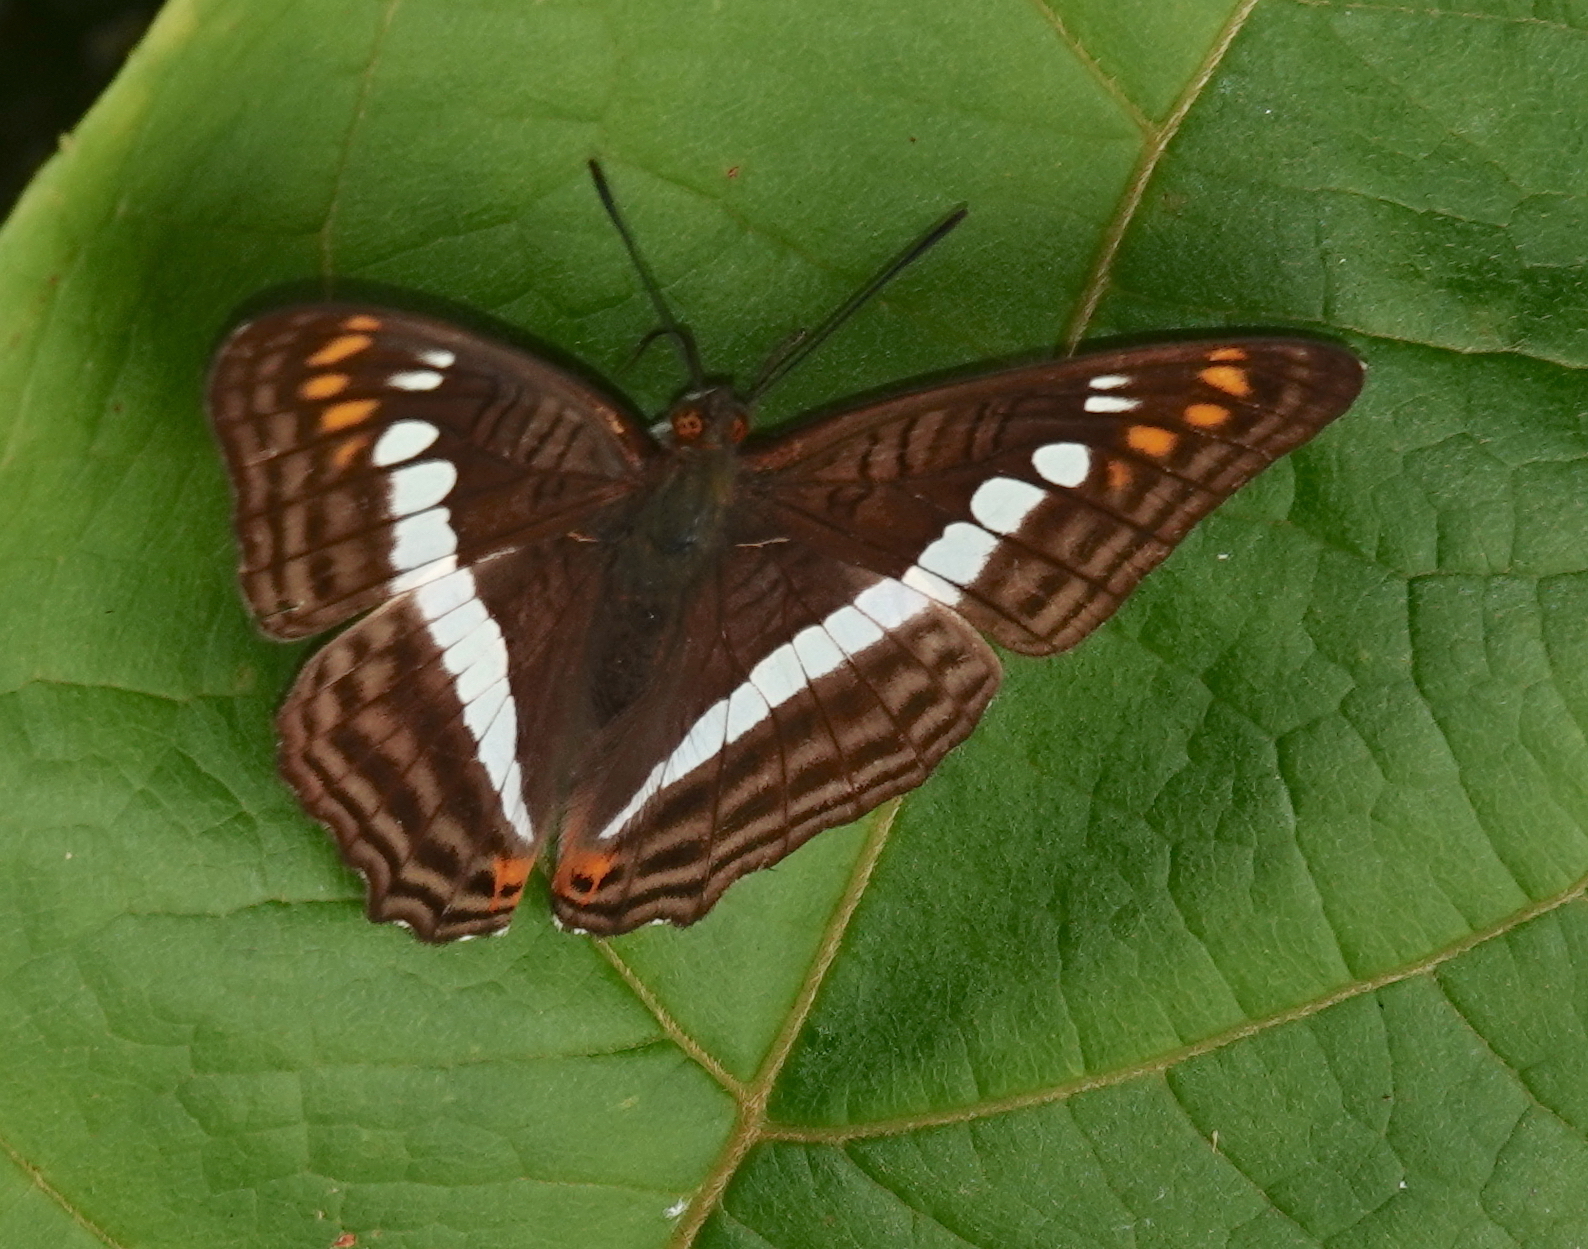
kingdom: Animalia
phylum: Arthropoda
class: Insecta
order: Lepidoptera
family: Nymphalidae
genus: Limenitis
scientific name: Limenitis alala
